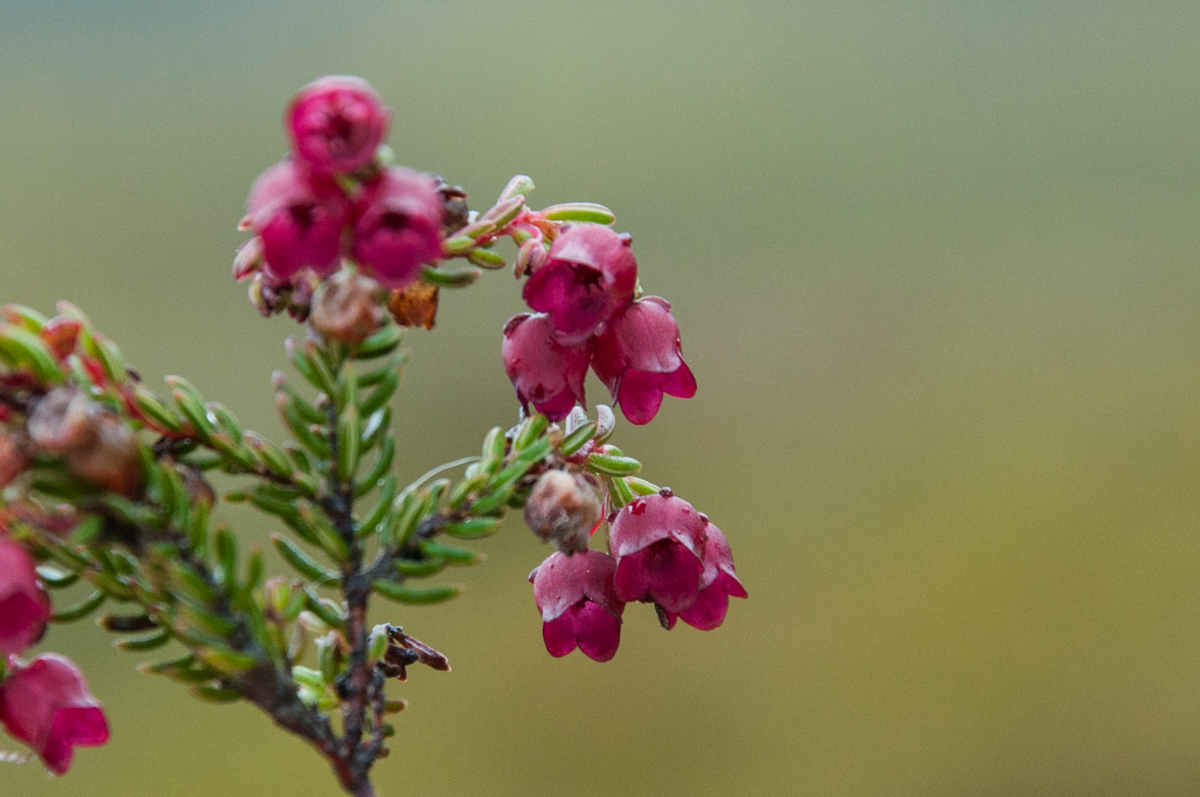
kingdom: Plantae
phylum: Tracheophyta
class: Magnoliopsida
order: Ericales
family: Ericaceae
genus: Erica
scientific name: Erica cabernetea
